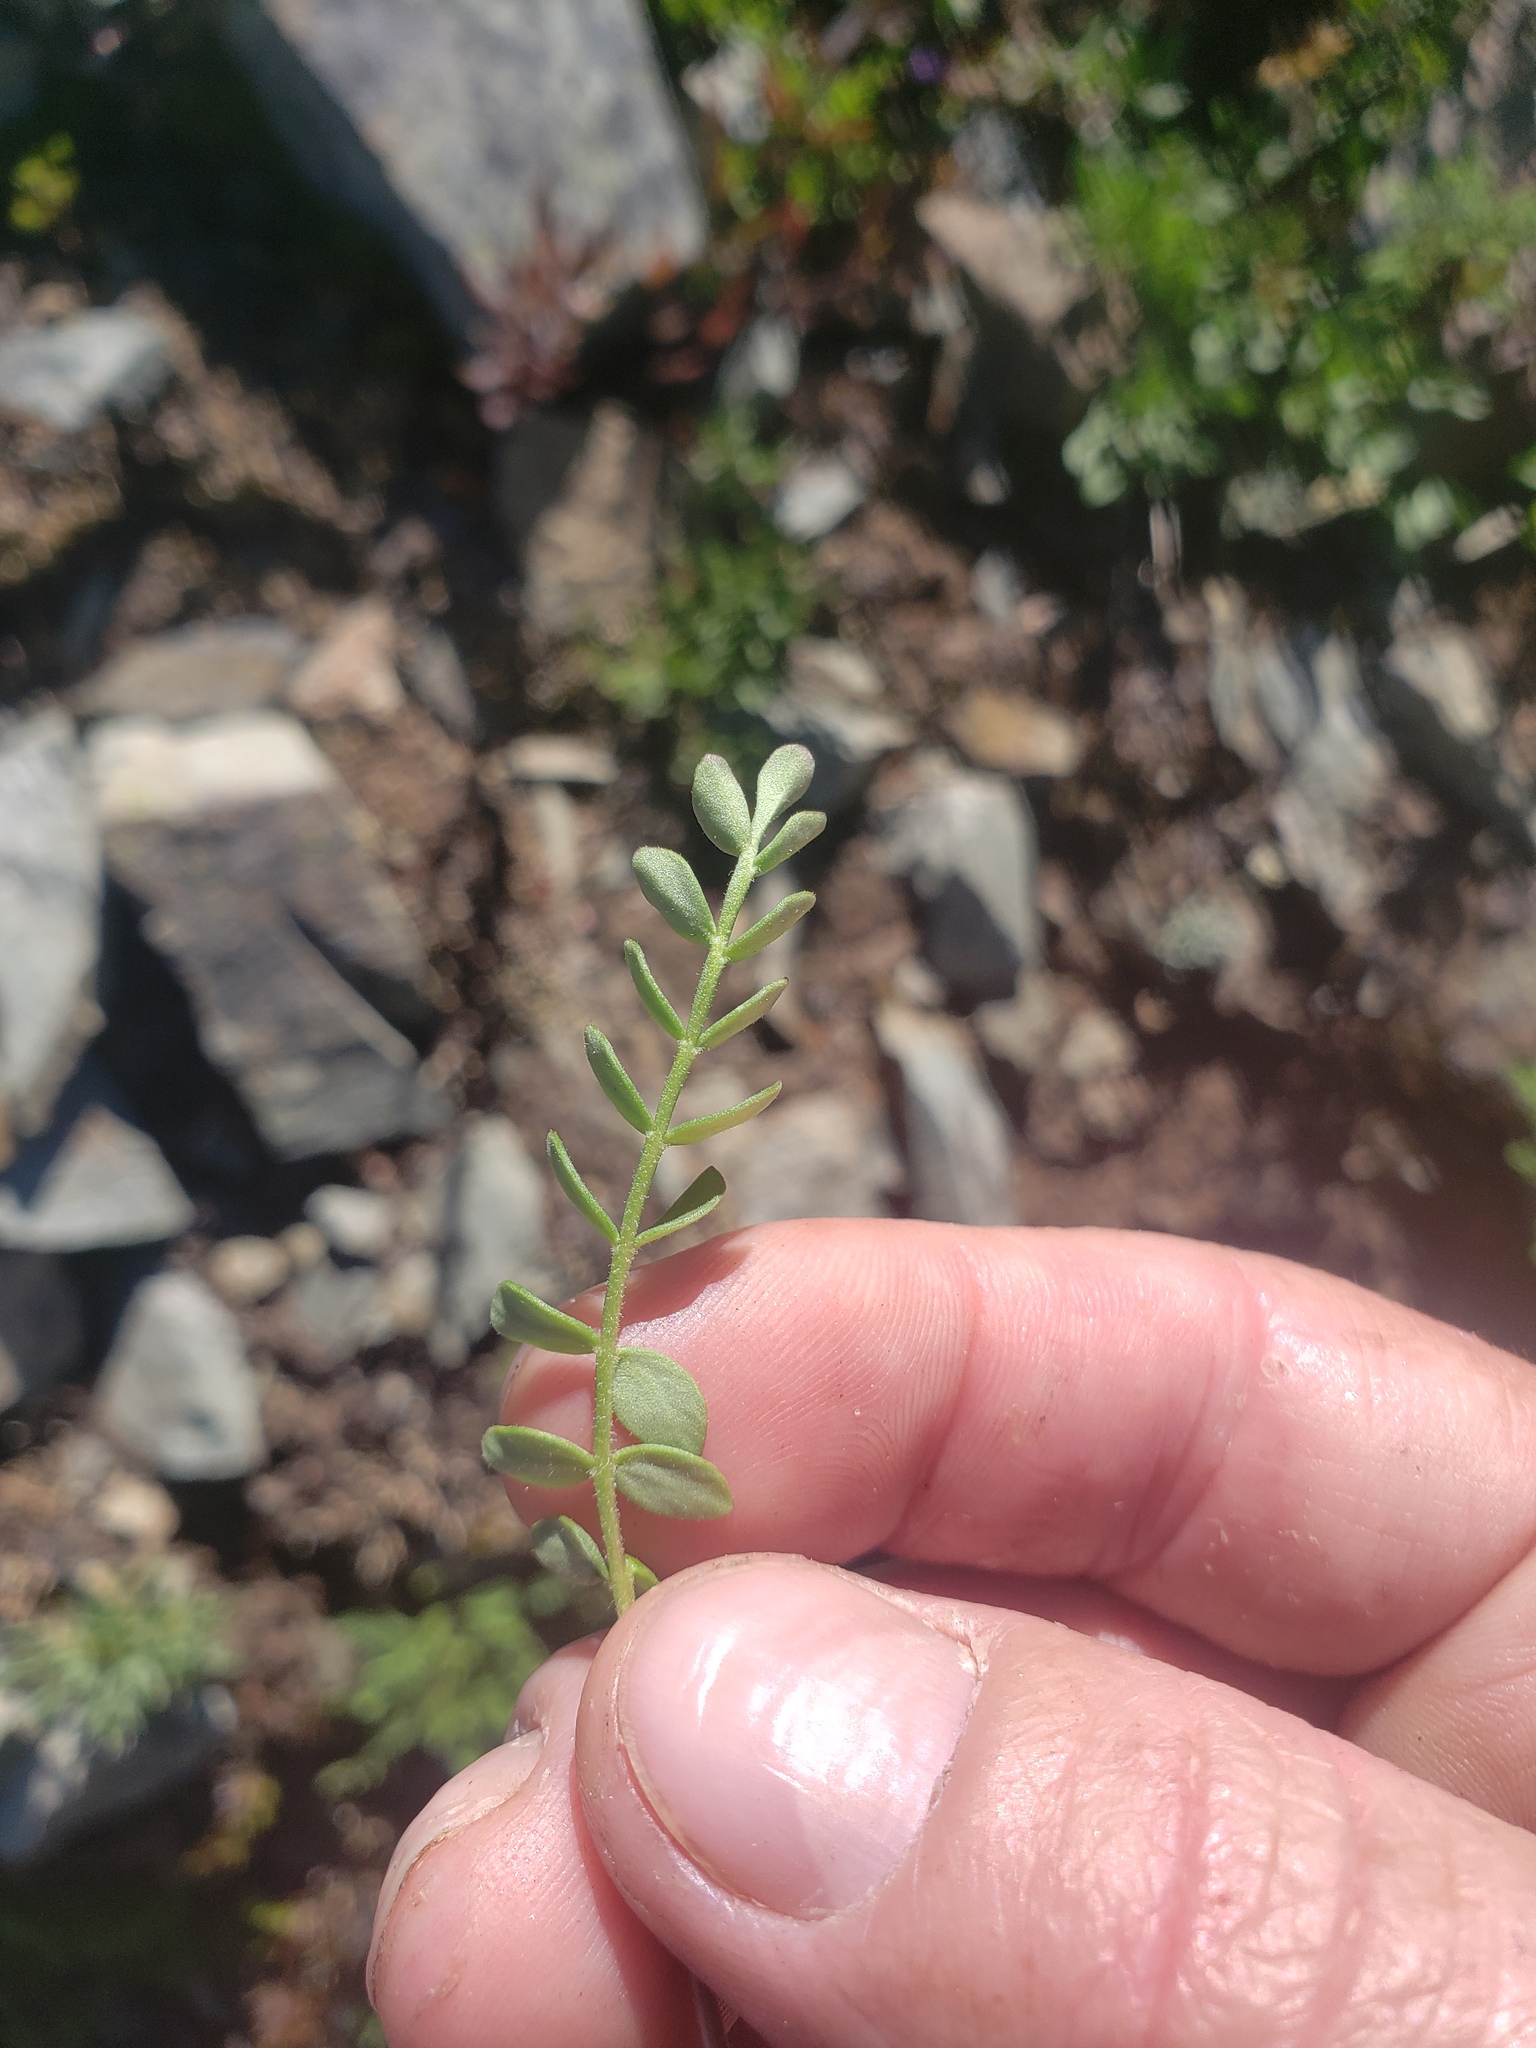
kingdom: Plantae
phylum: Tracheophyta
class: Magnoliopsida
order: Ericales
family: Polemoniaceae
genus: Polemonium
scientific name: Polemonium pulcherrimum
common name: Short jacob's-ladder
